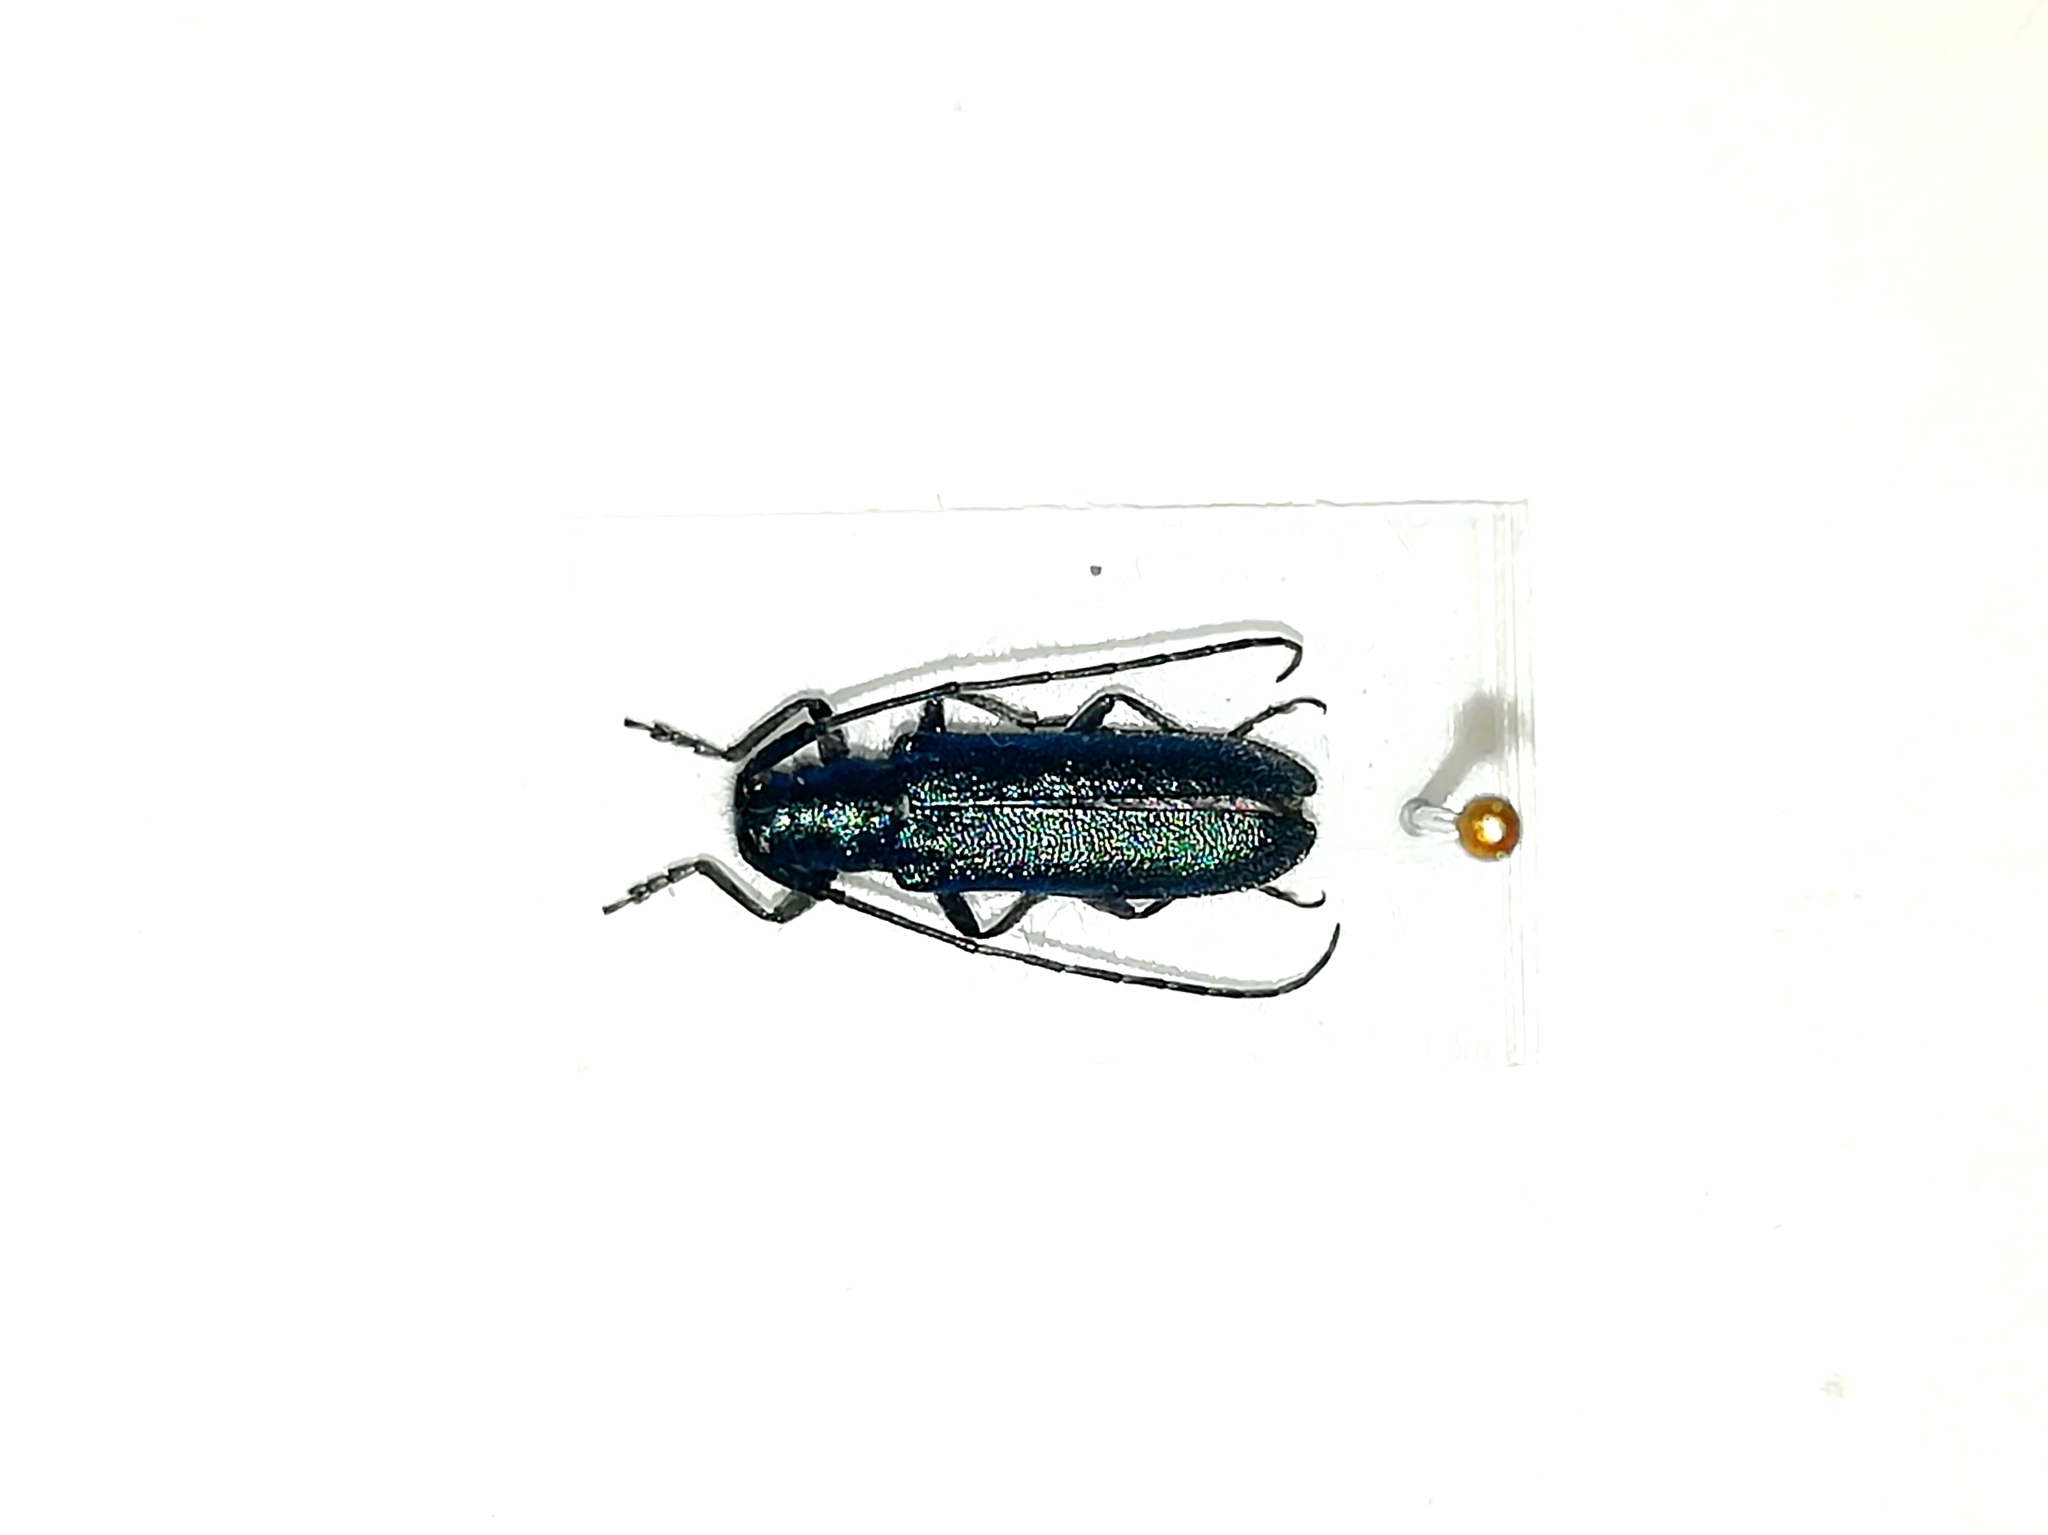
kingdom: Animalia
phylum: Arthropoda
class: Insecta
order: Coleoptera
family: Cerambycidae
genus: Agapanthia
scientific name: Agapanthia intermedia
